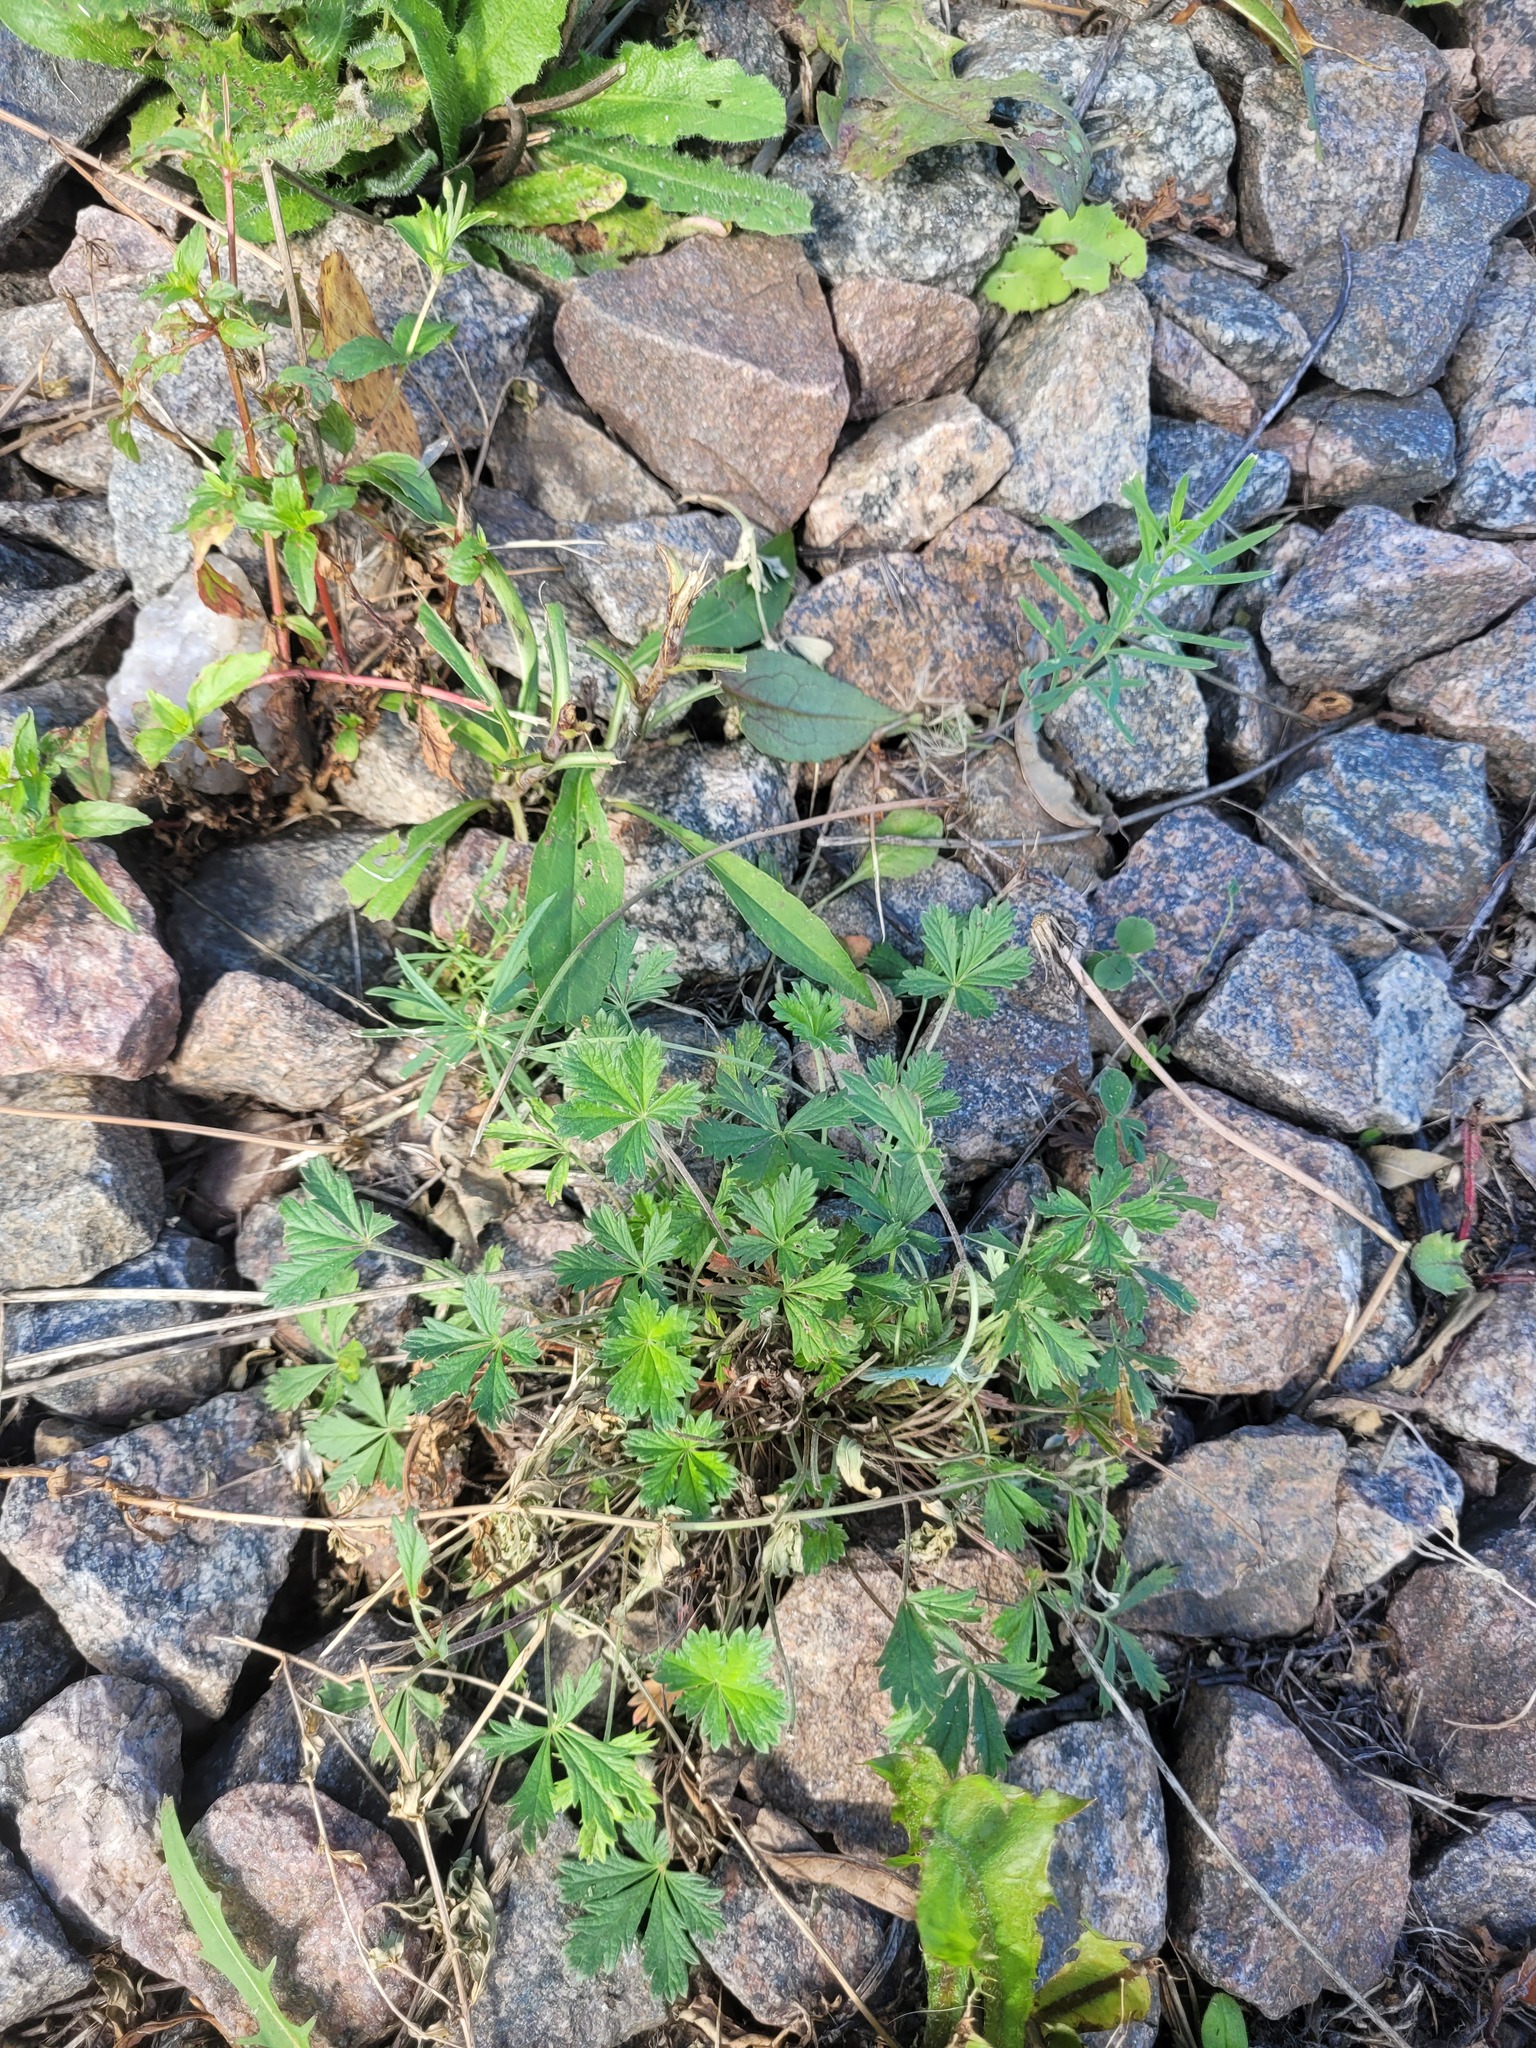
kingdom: Plantae
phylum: Tracheophyta
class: Magnoliopsida
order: Rosales
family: Rosaceae
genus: Potentilla
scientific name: Potentilla argentea
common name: Hoary cinquefoil
